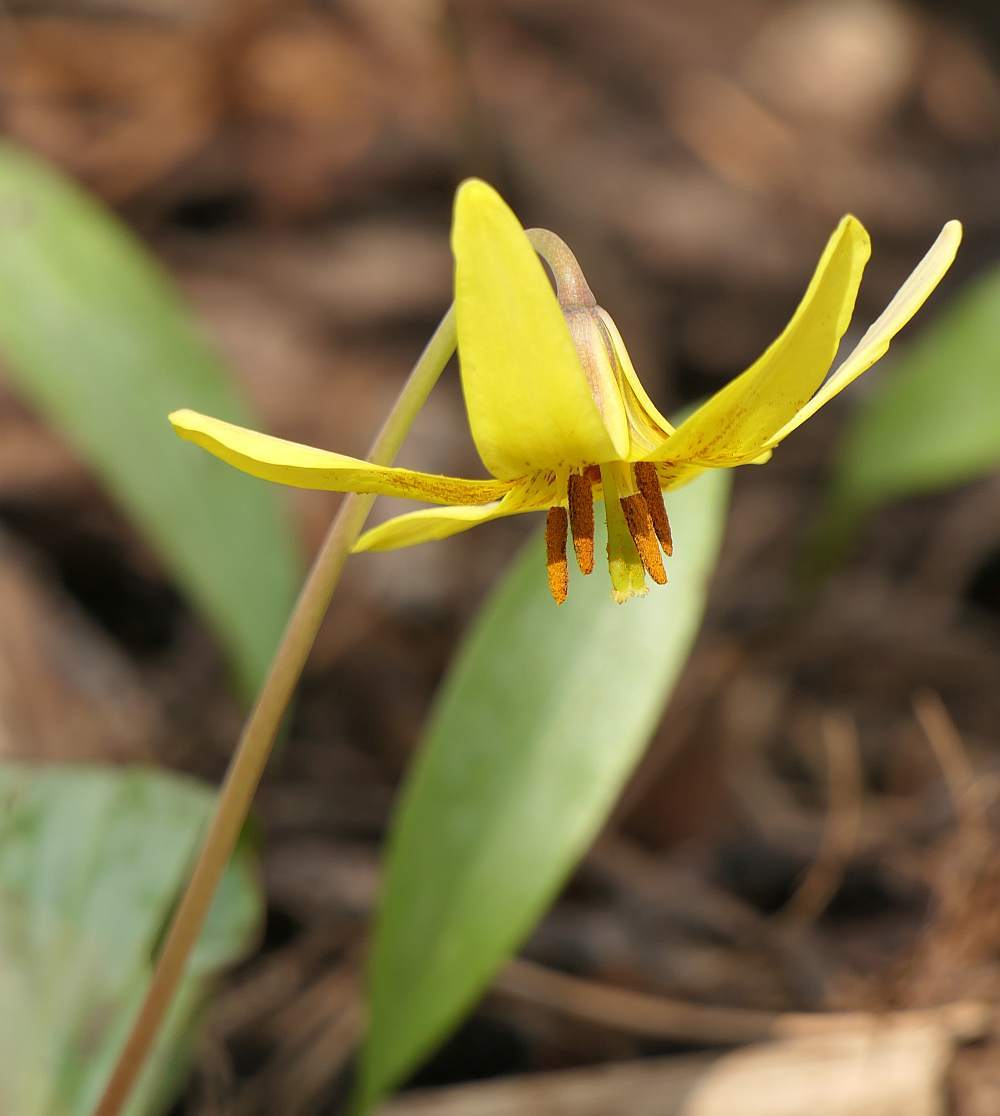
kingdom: Plantae
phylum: Tracheophyta
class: Liliopsida
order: Liliales
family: Liliaceae
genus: Erythronium
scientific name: Erythronium americanum
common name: Yellow adder's-tongue
